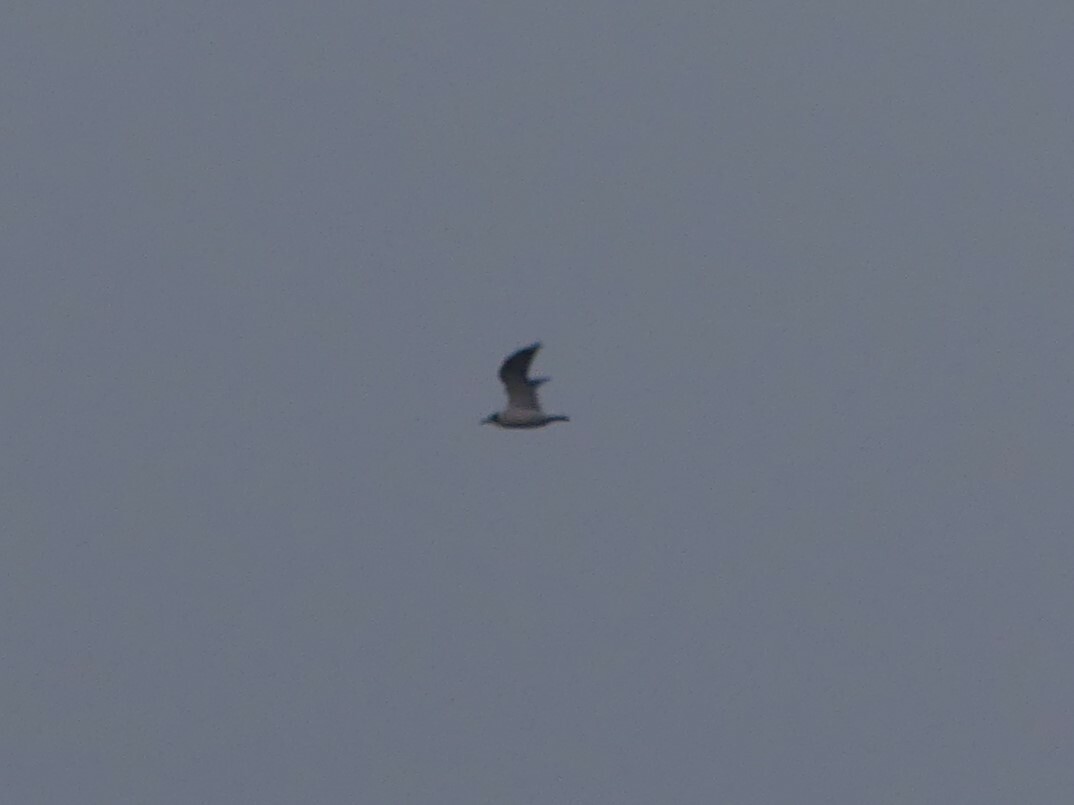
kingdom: Animalia
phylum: Chordata
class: Aves
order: Charadriiformes
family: Laridae
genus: Leucophaeus
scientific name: Leucophaeus pipixcan
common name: Franklin's gull
